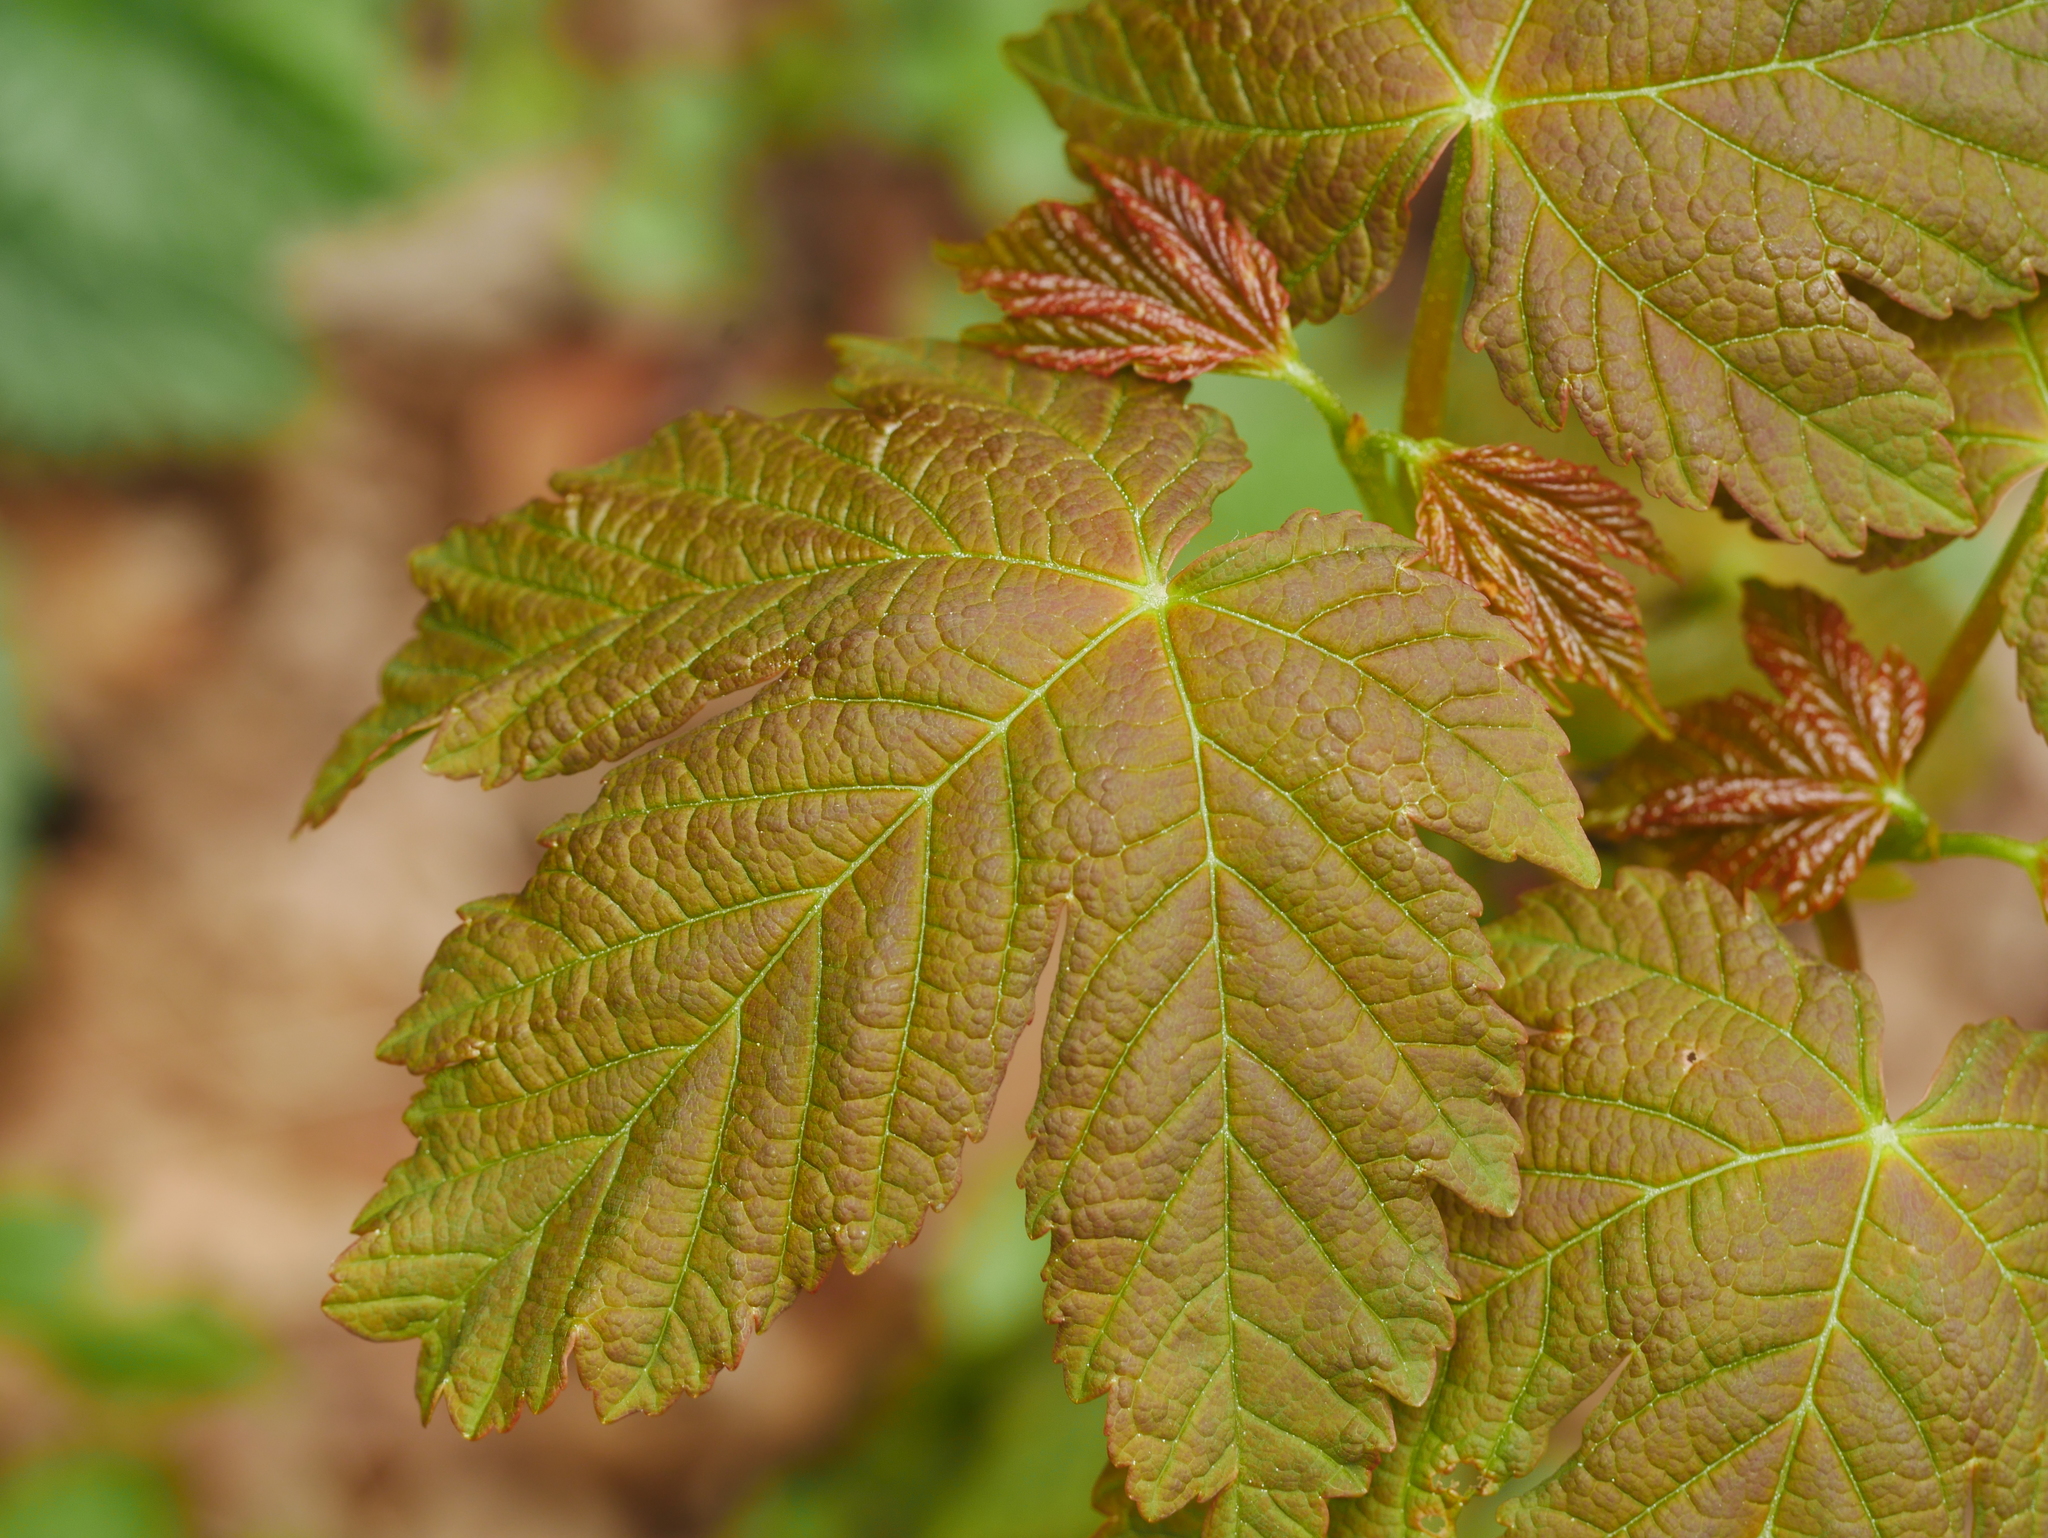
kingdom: Plantae
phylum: Tracheophyta
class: Magnoliopsida
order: Sapindales
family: Sapindaceae
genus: Acer
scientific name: Acer pseudoplatanus
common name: Sycamore
